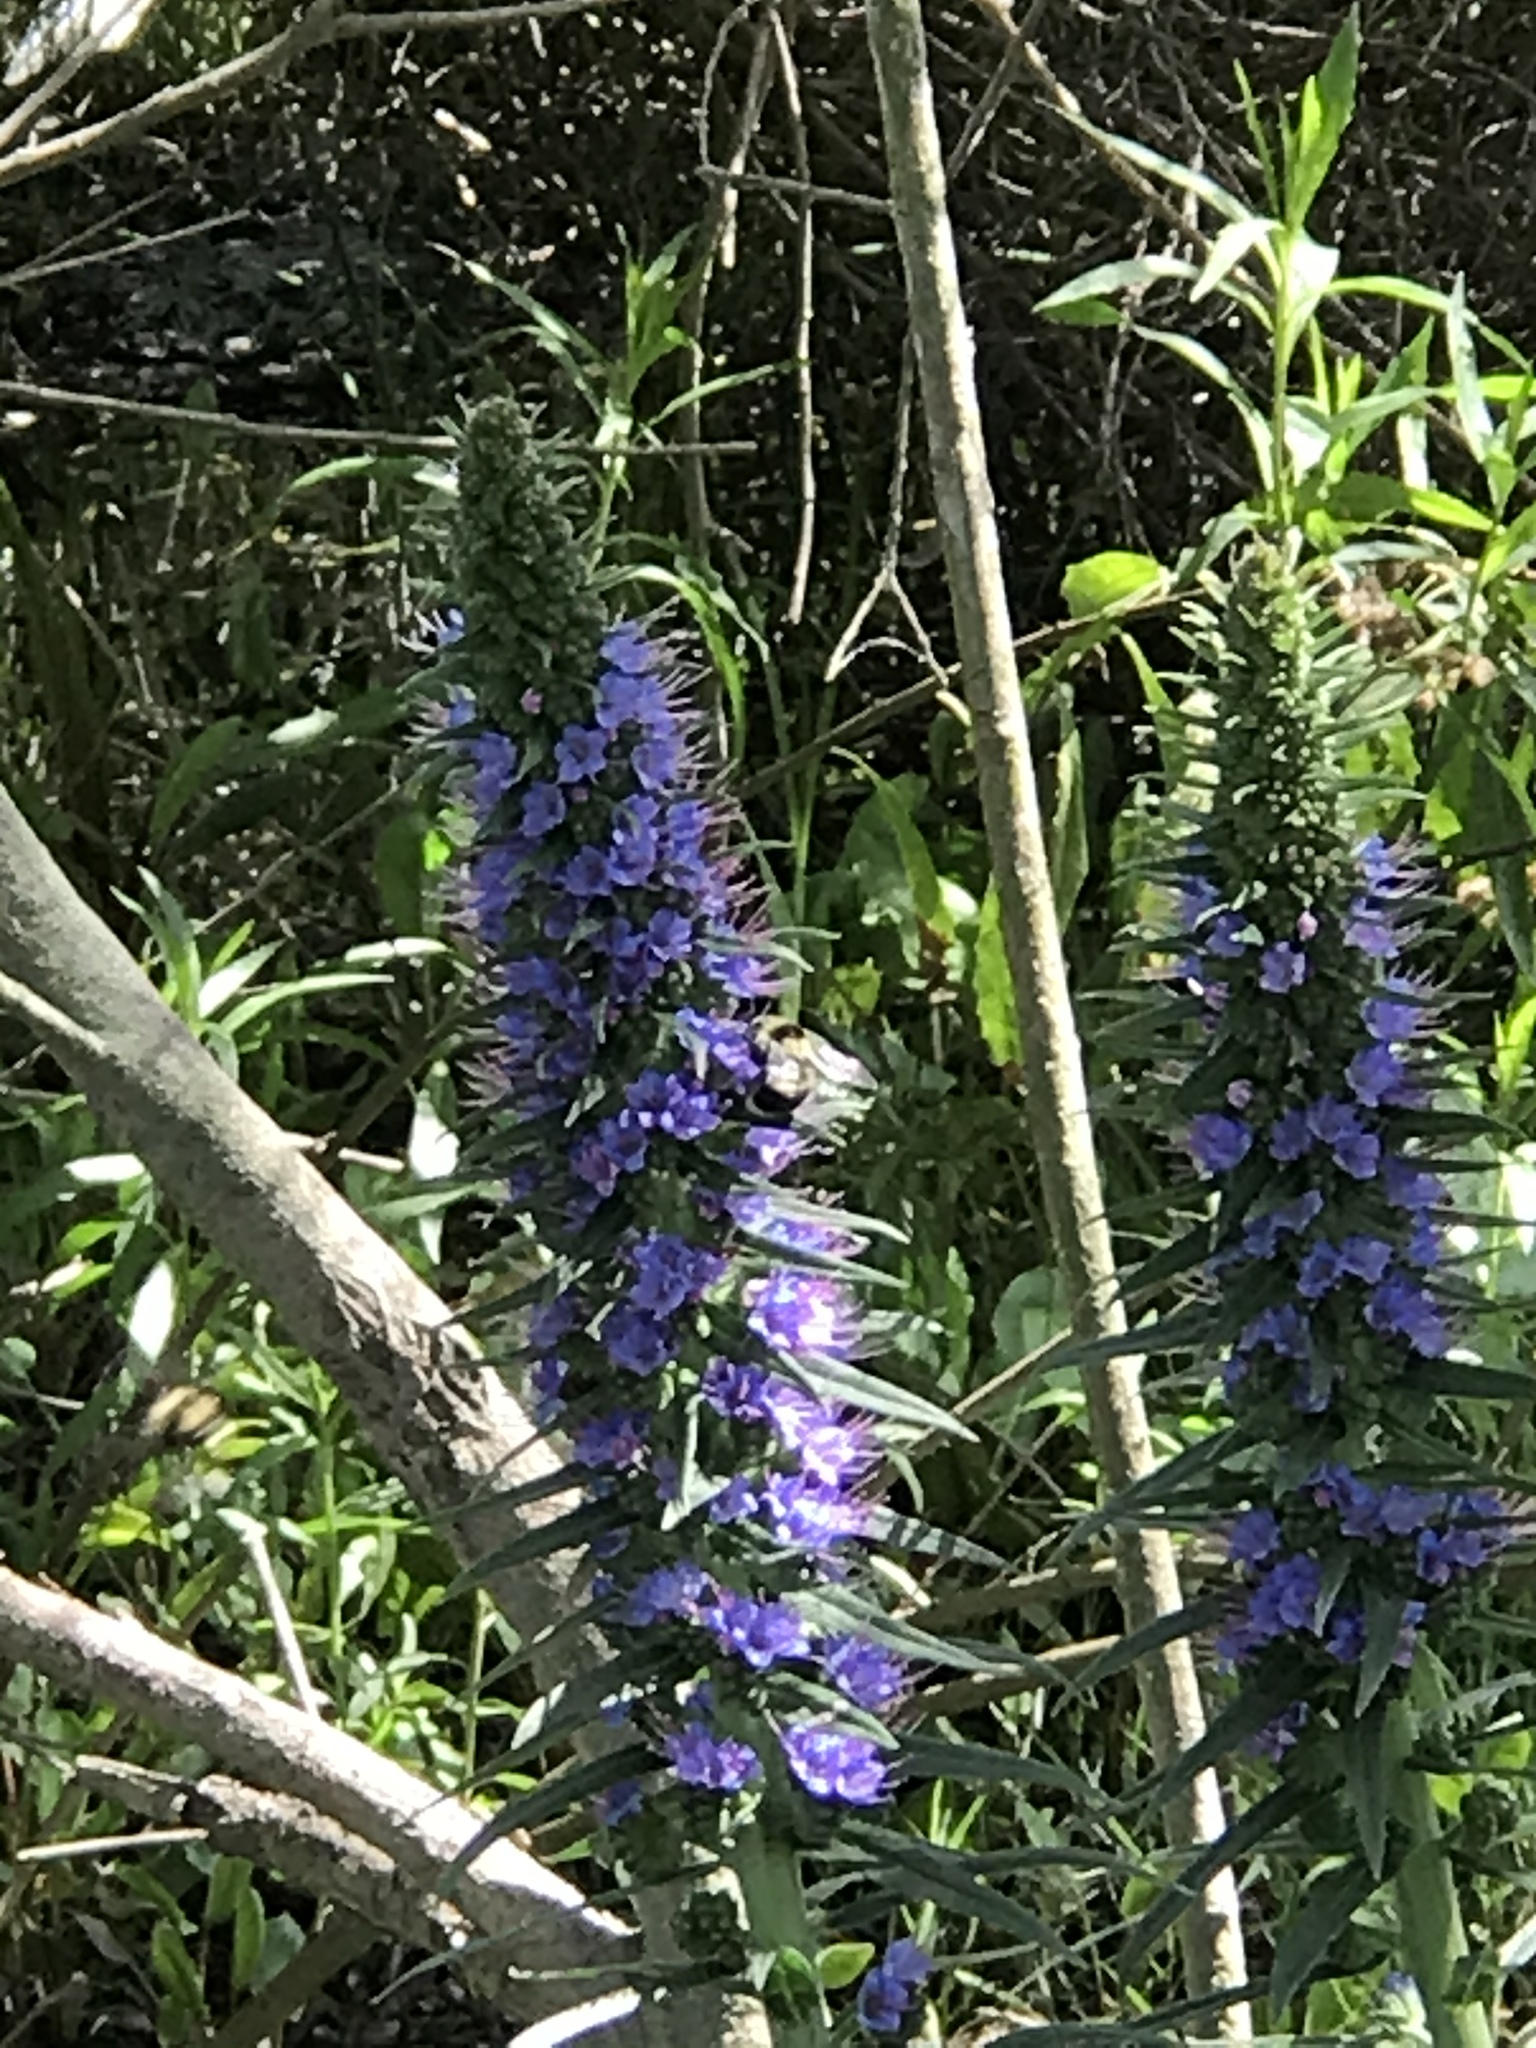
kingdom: Animalia
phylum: Arthropoda
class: Insecta
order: Hymenoptera
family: Apidae
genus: Bombus
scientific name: Bombus melanopygus
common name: Black tail bumble bee
